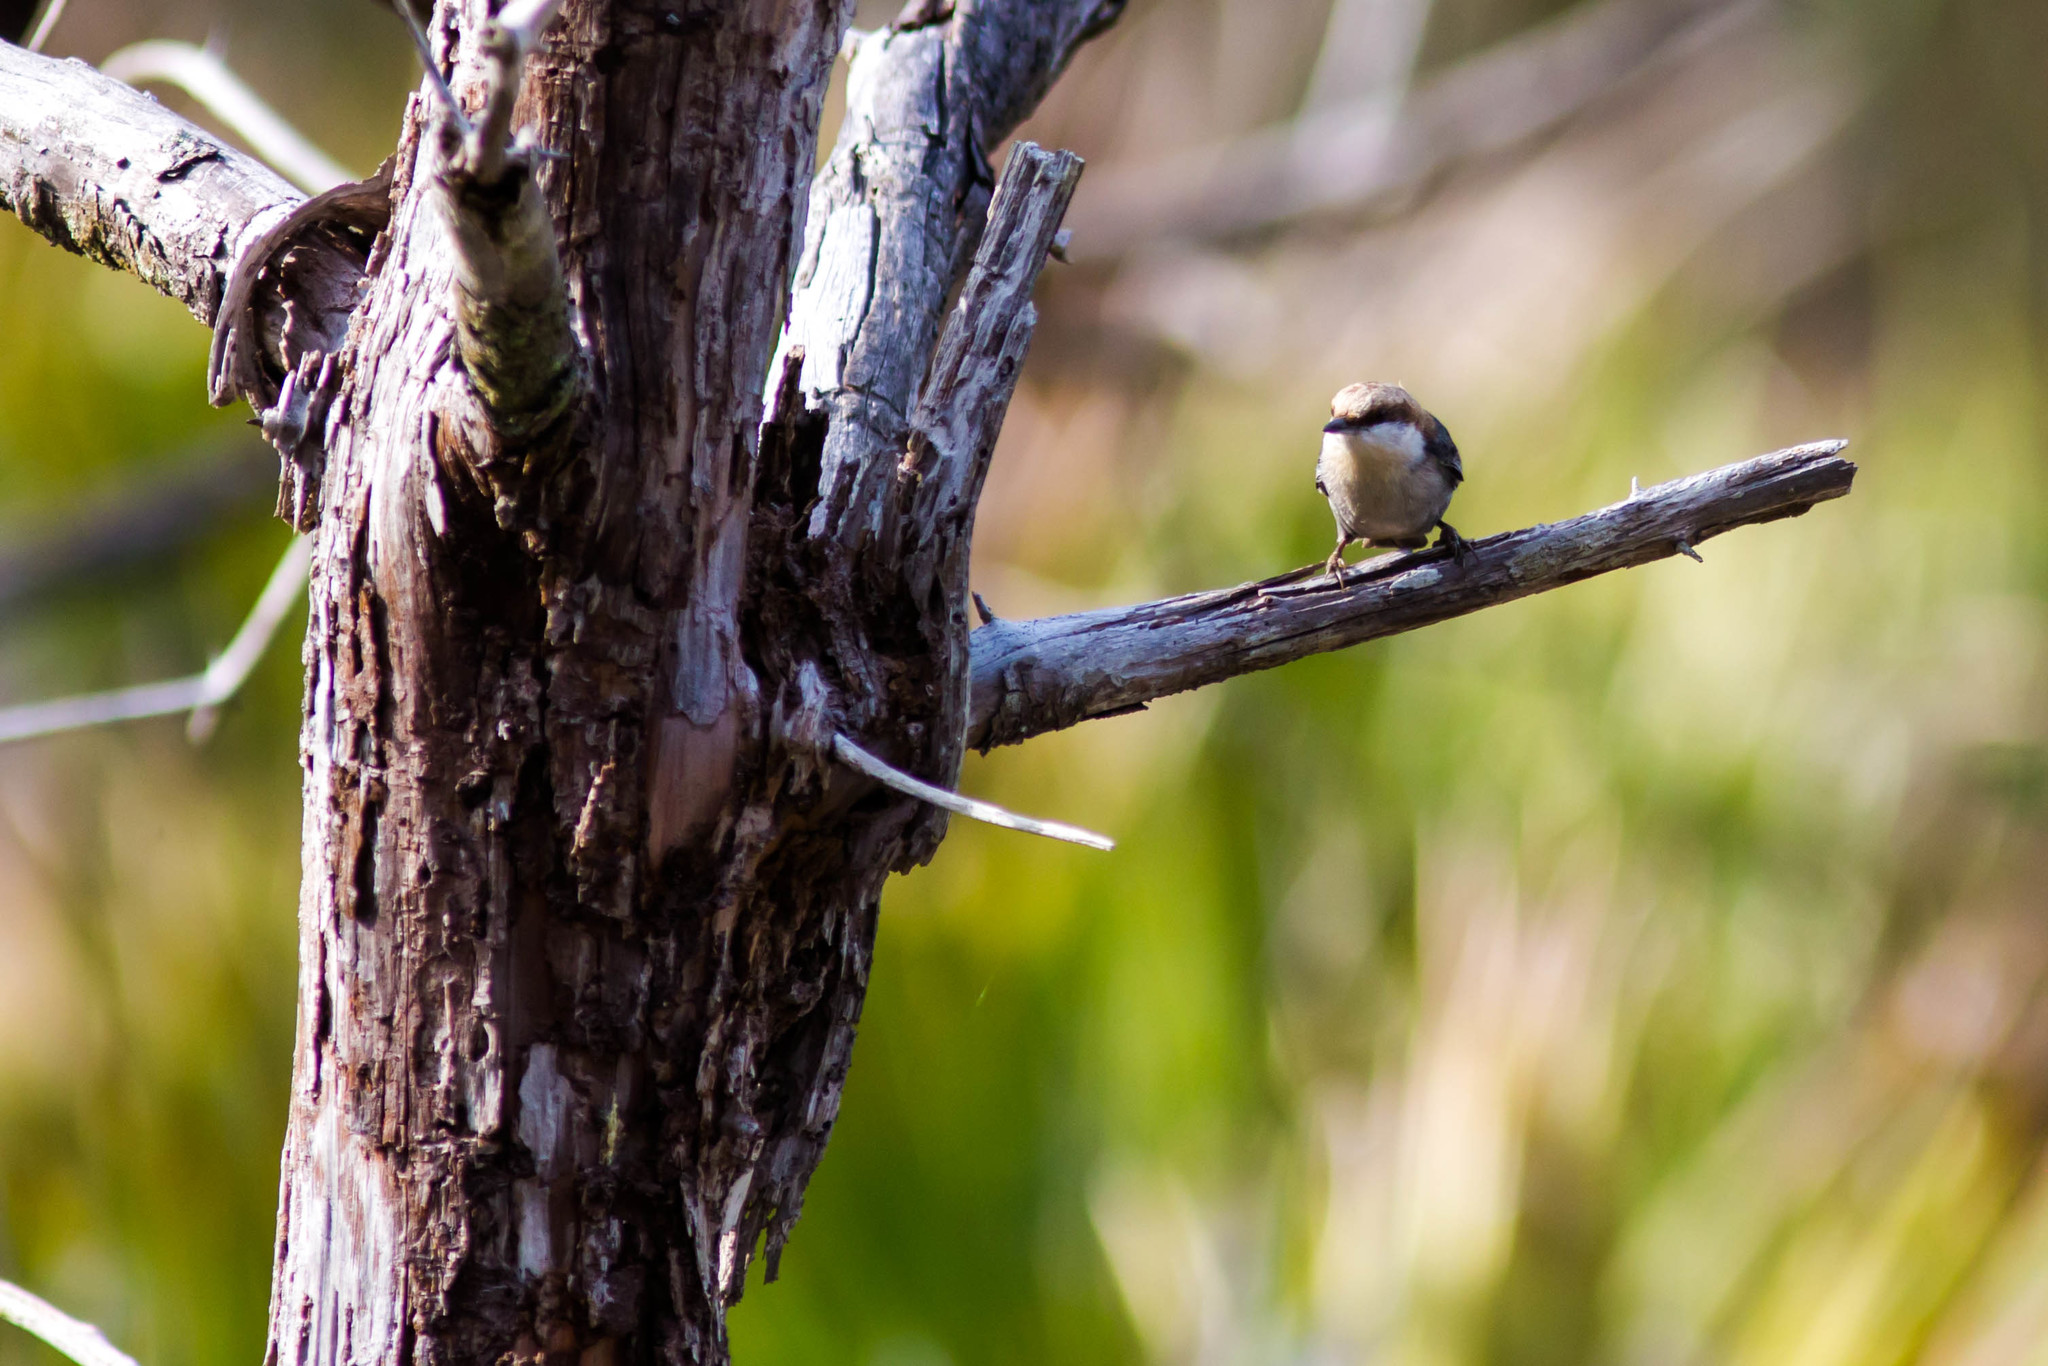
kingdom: Animalia
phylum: Chordata
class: Aves
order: Passeriformes
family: Sittidae
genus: Sitta
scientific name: Sitta pusilla
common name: Brown-headed nuthatch
